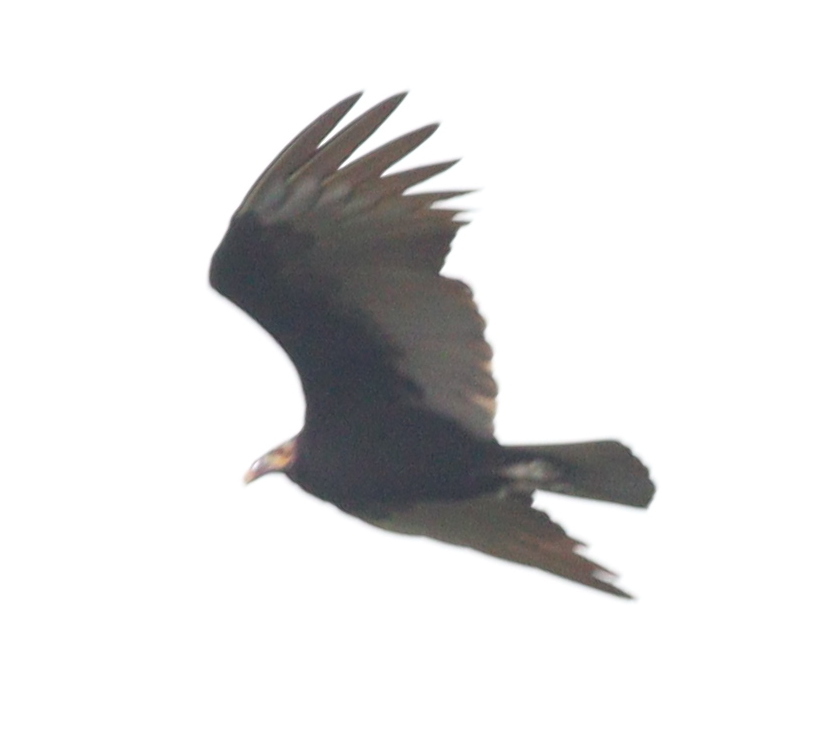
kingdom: Animalia
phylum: Chordata
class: Aves
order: Accipitriformes
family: Cathartidae
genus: Cathartes
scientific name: Cathartes burrovianus
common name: Lesser yellow-headed vulture
